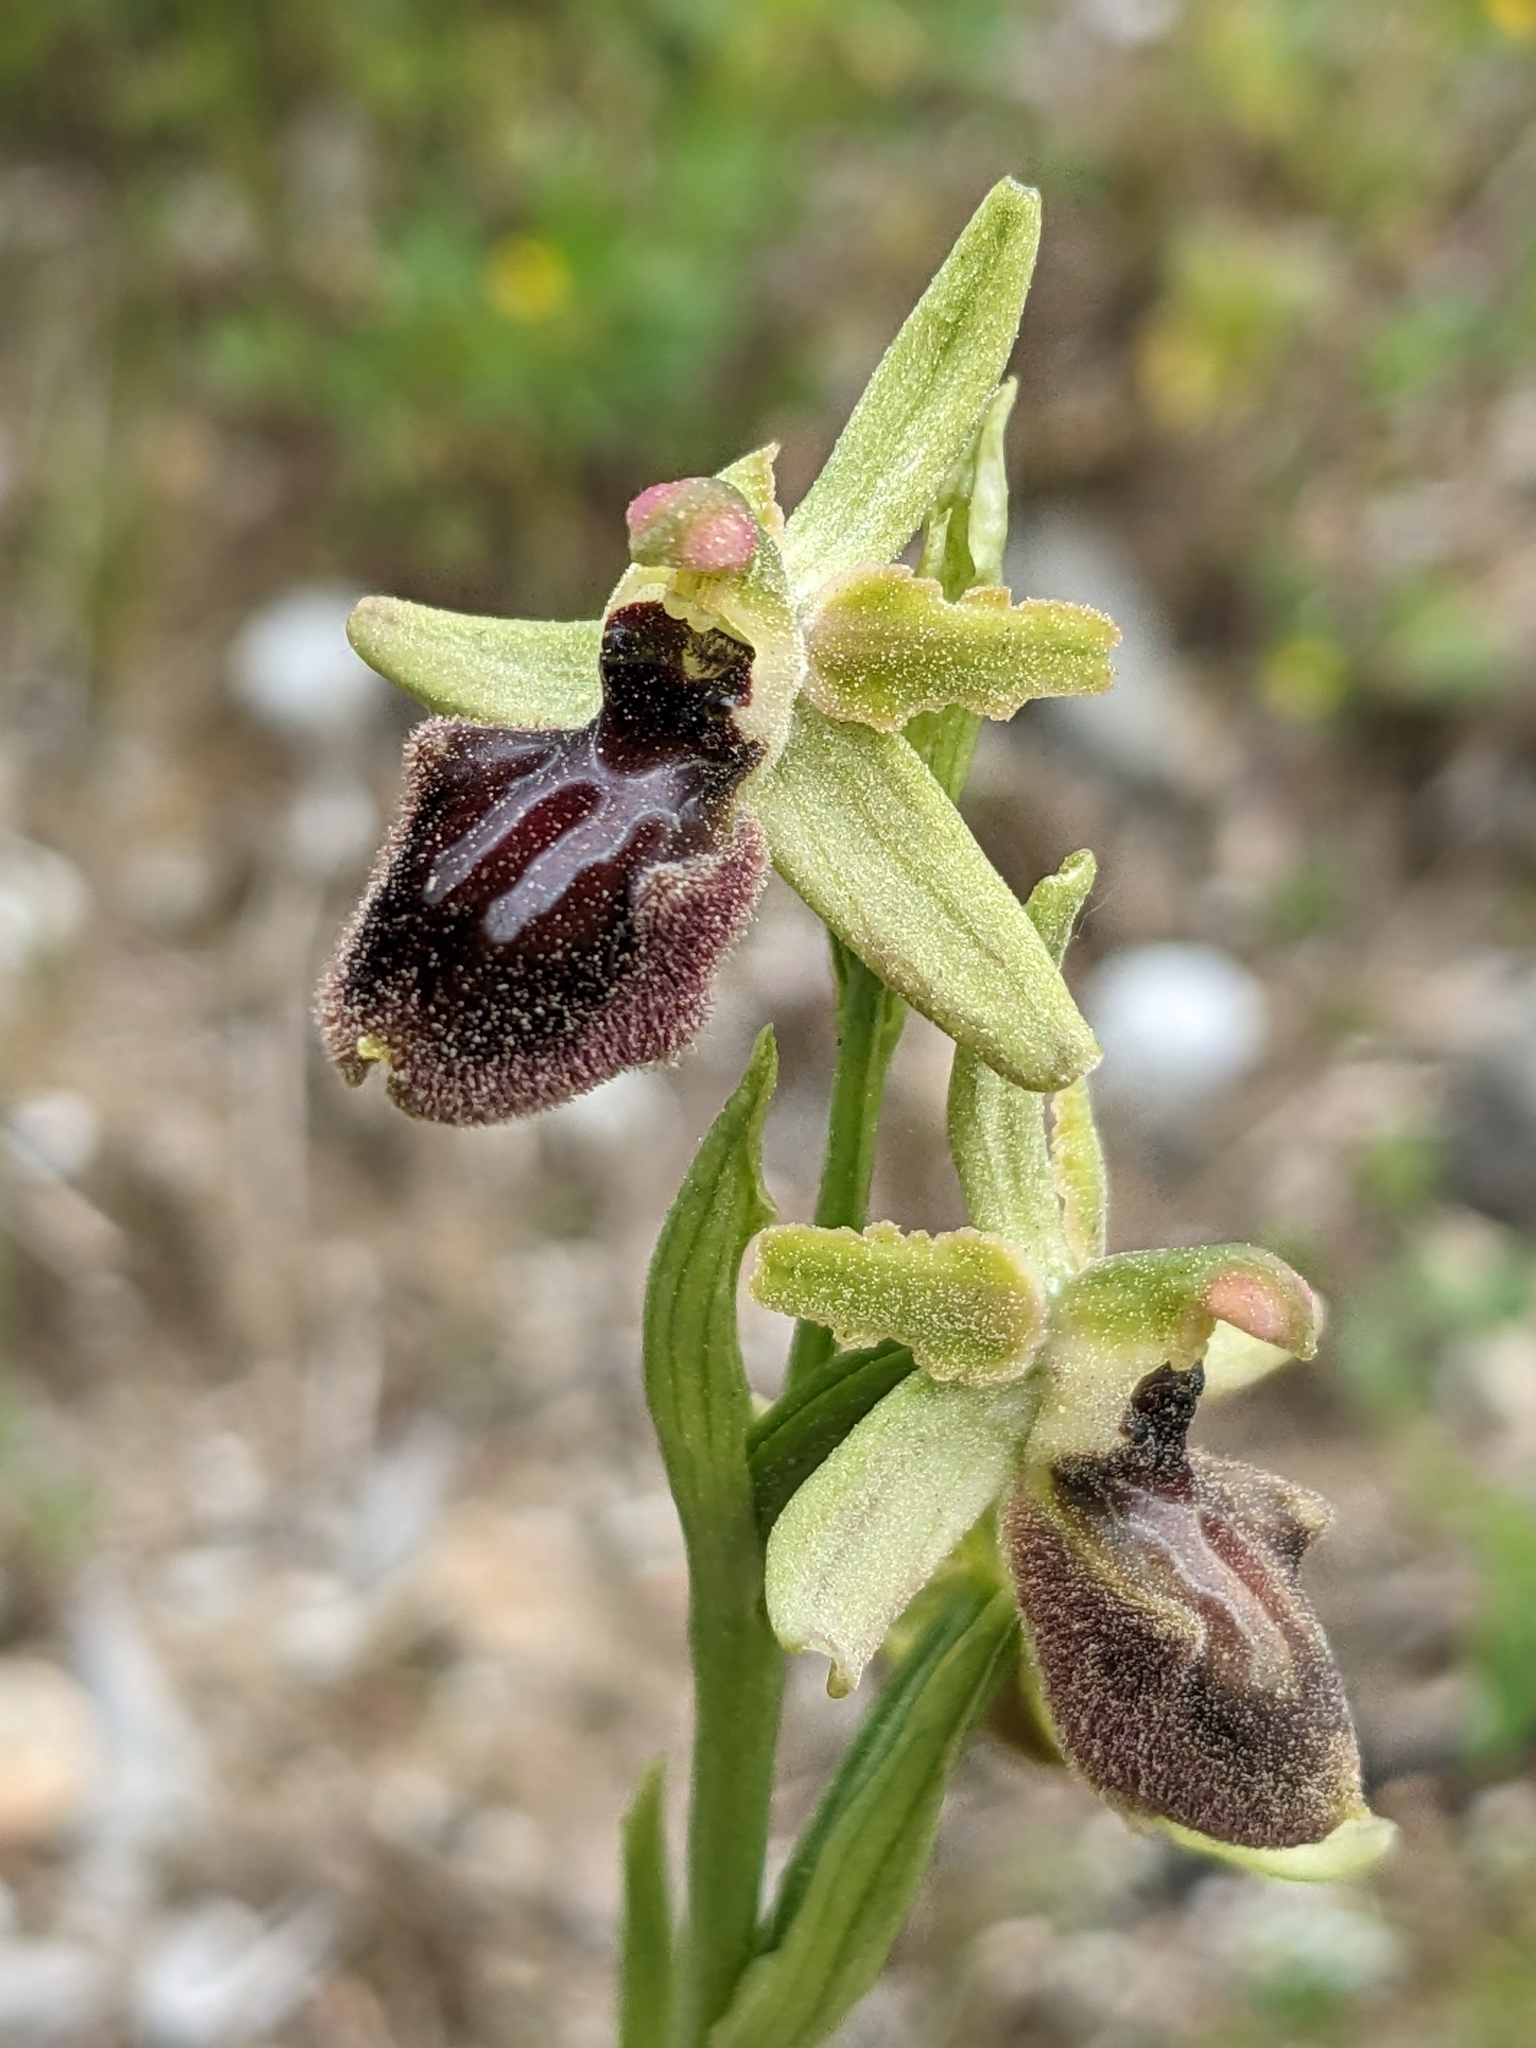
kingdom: Plantae
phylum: Tracheophyta
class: Liliopsida
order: Asparagales
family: Orchidaceae
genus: Ophrys
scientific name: Ophrys arachnitiformis
